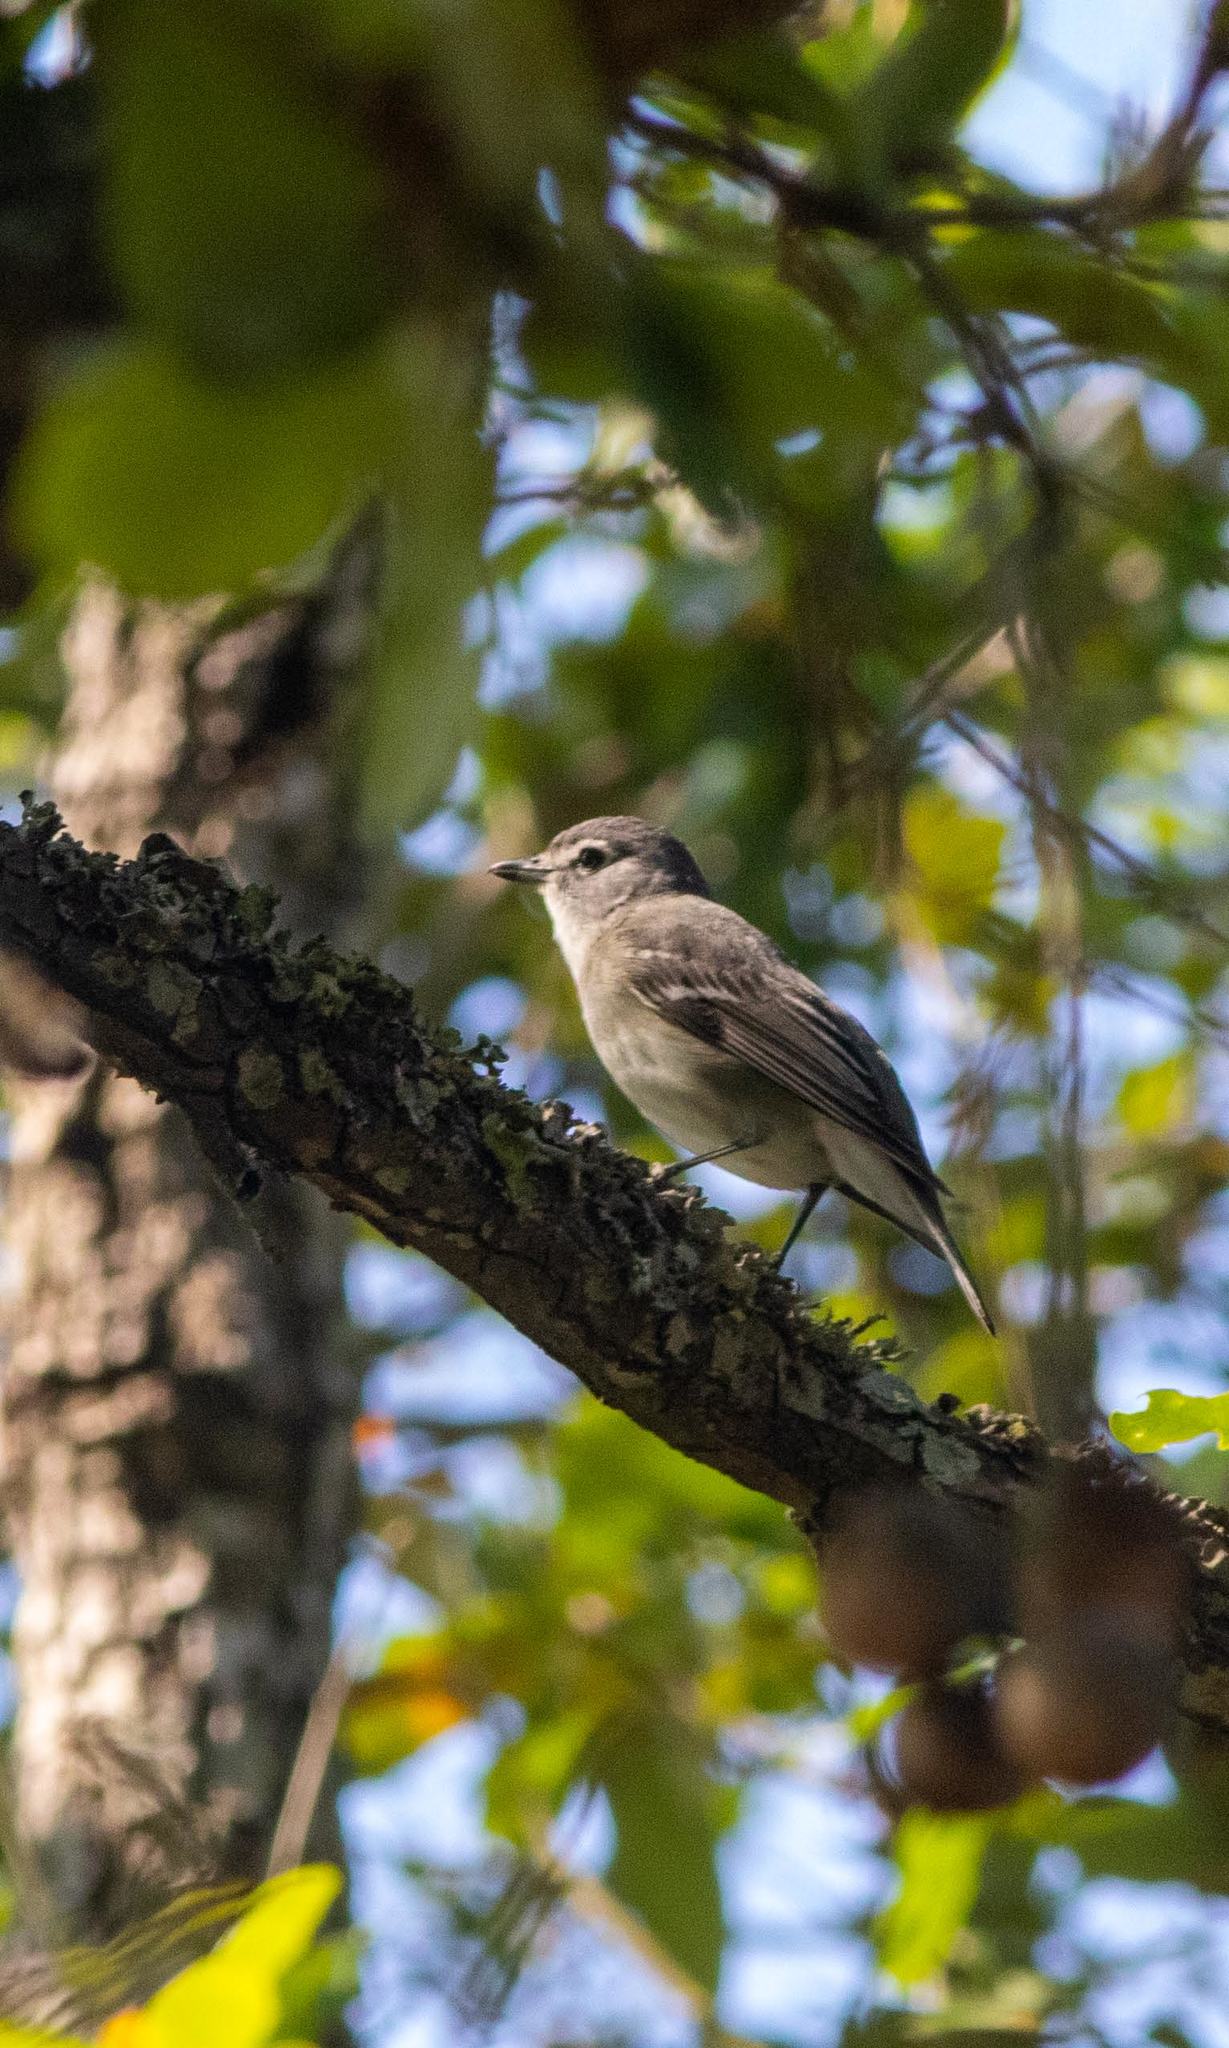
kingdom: Animalia
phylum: Chordata
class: Aves
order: Passeriformes
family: Vireonidae
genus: Vireo
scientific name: Vireo plumbeus
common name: Plumbeous vireo
